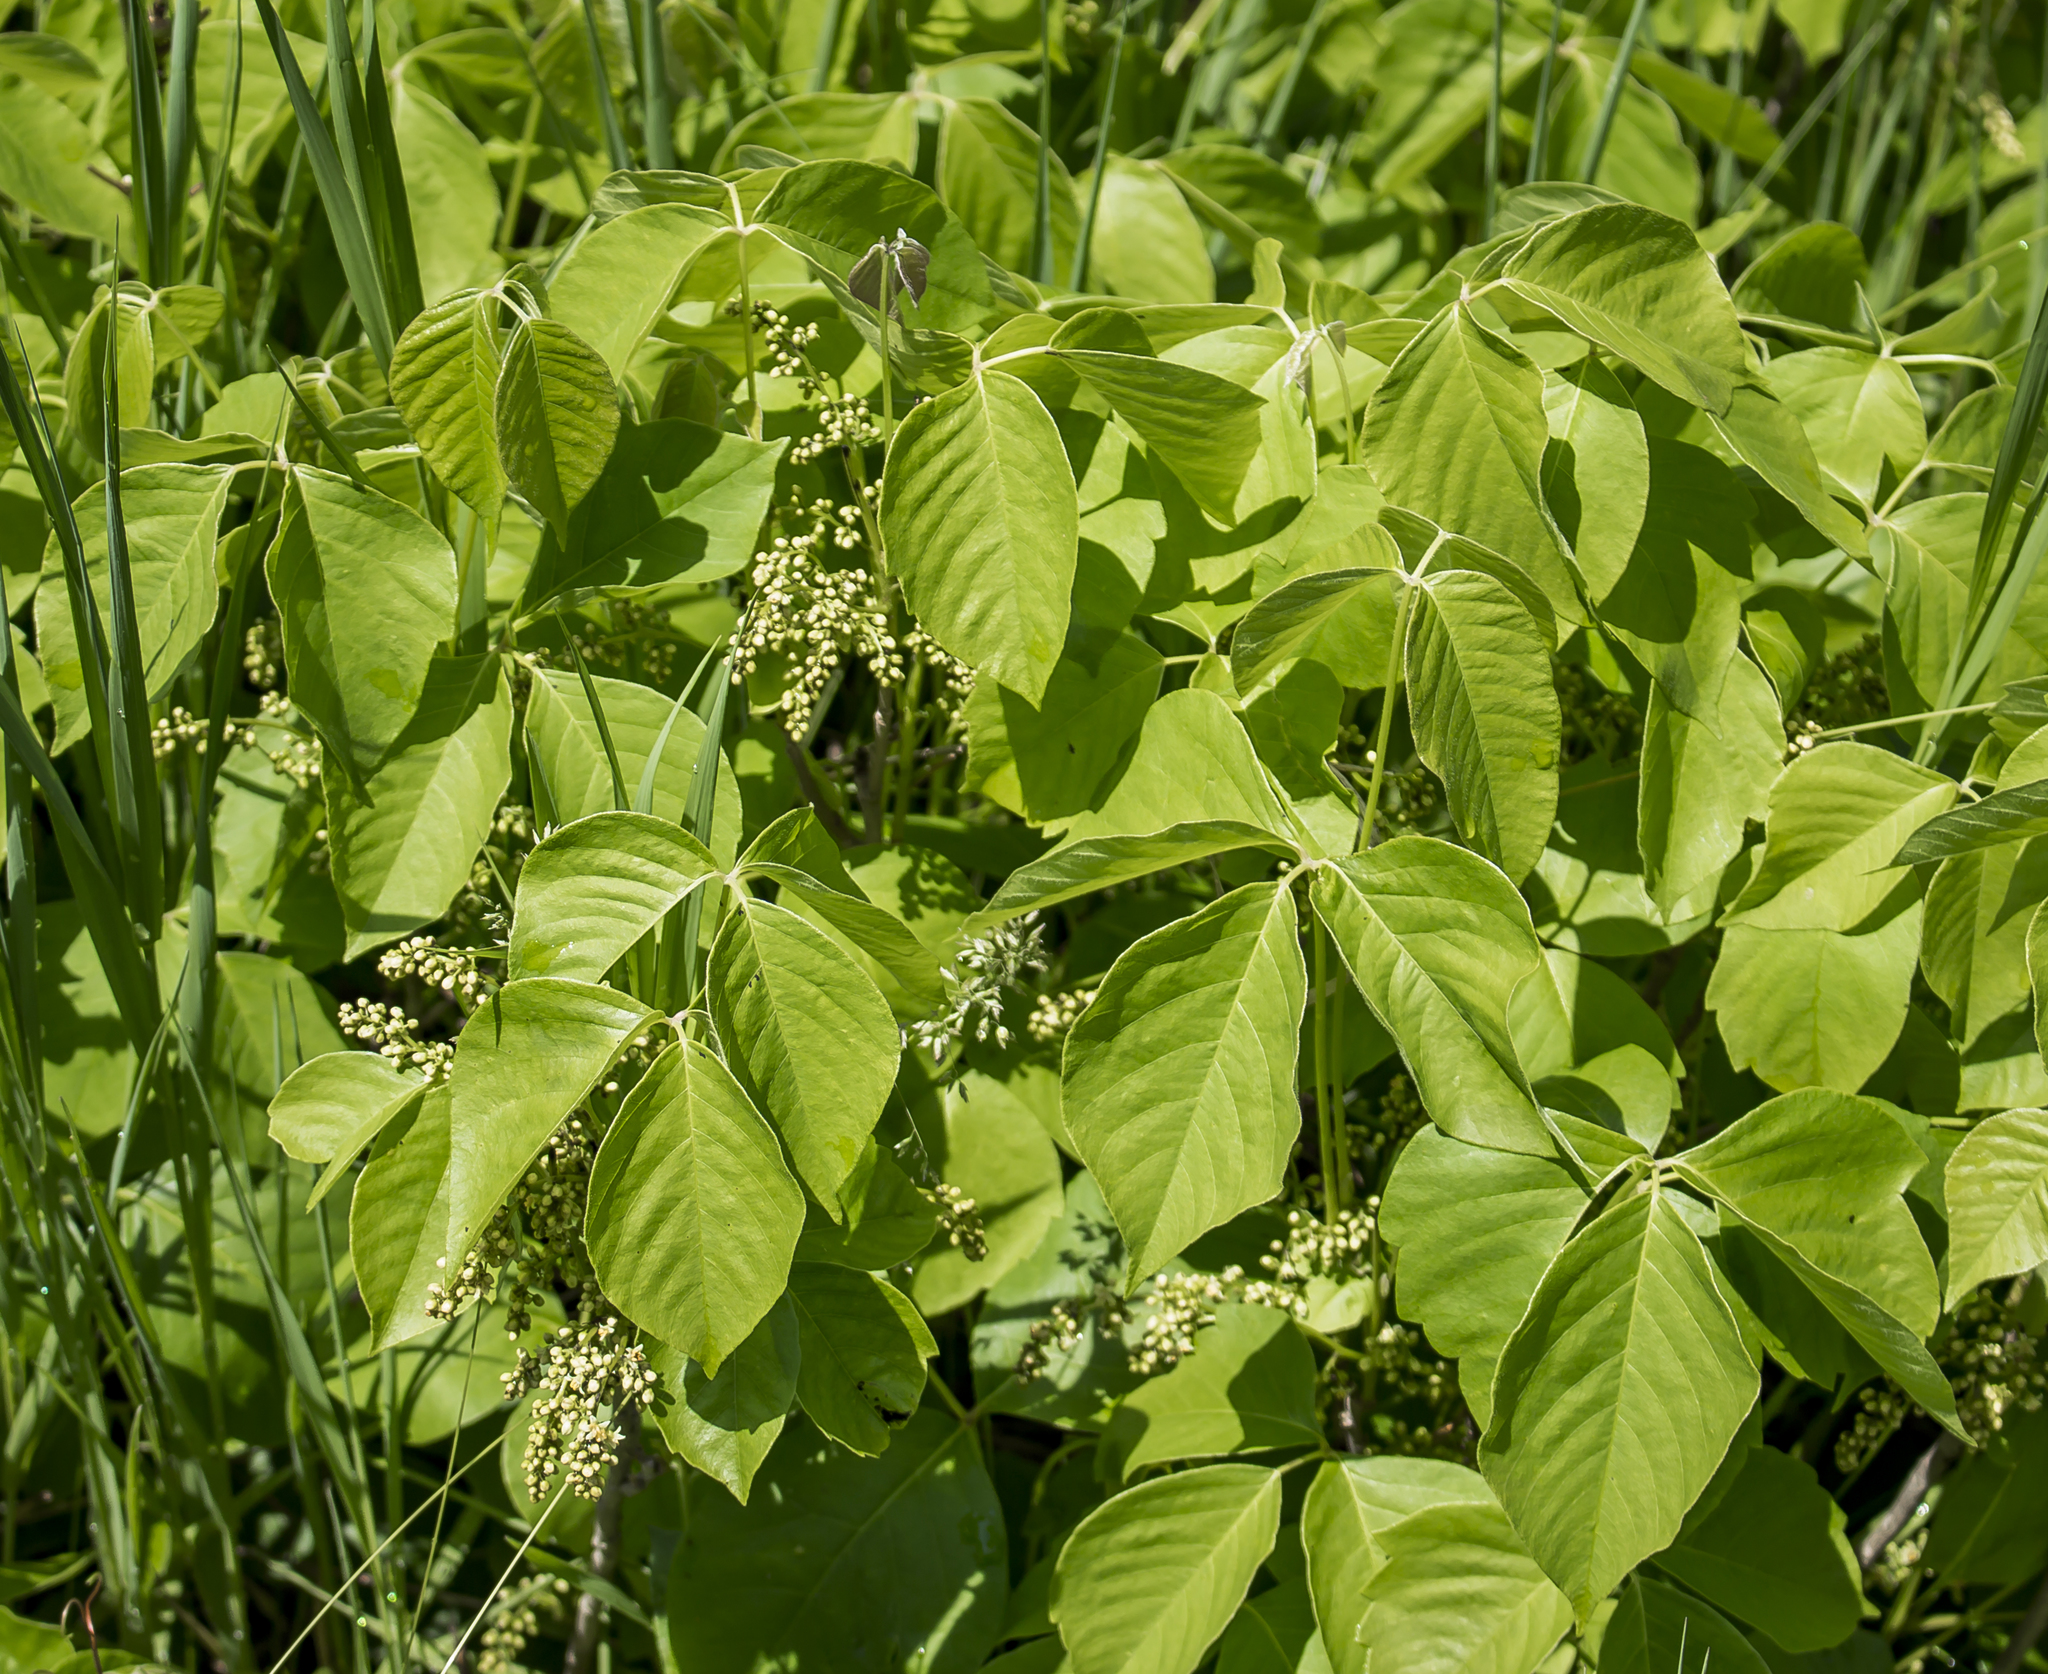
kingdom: Plantae
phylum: Tracheophyta
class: Magnoliopsida
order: Sapindales
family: Anacardiaceae
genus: Toxicodendron
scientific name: Toxicodendron rydbergii
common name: Rydberg's poison-ivy
